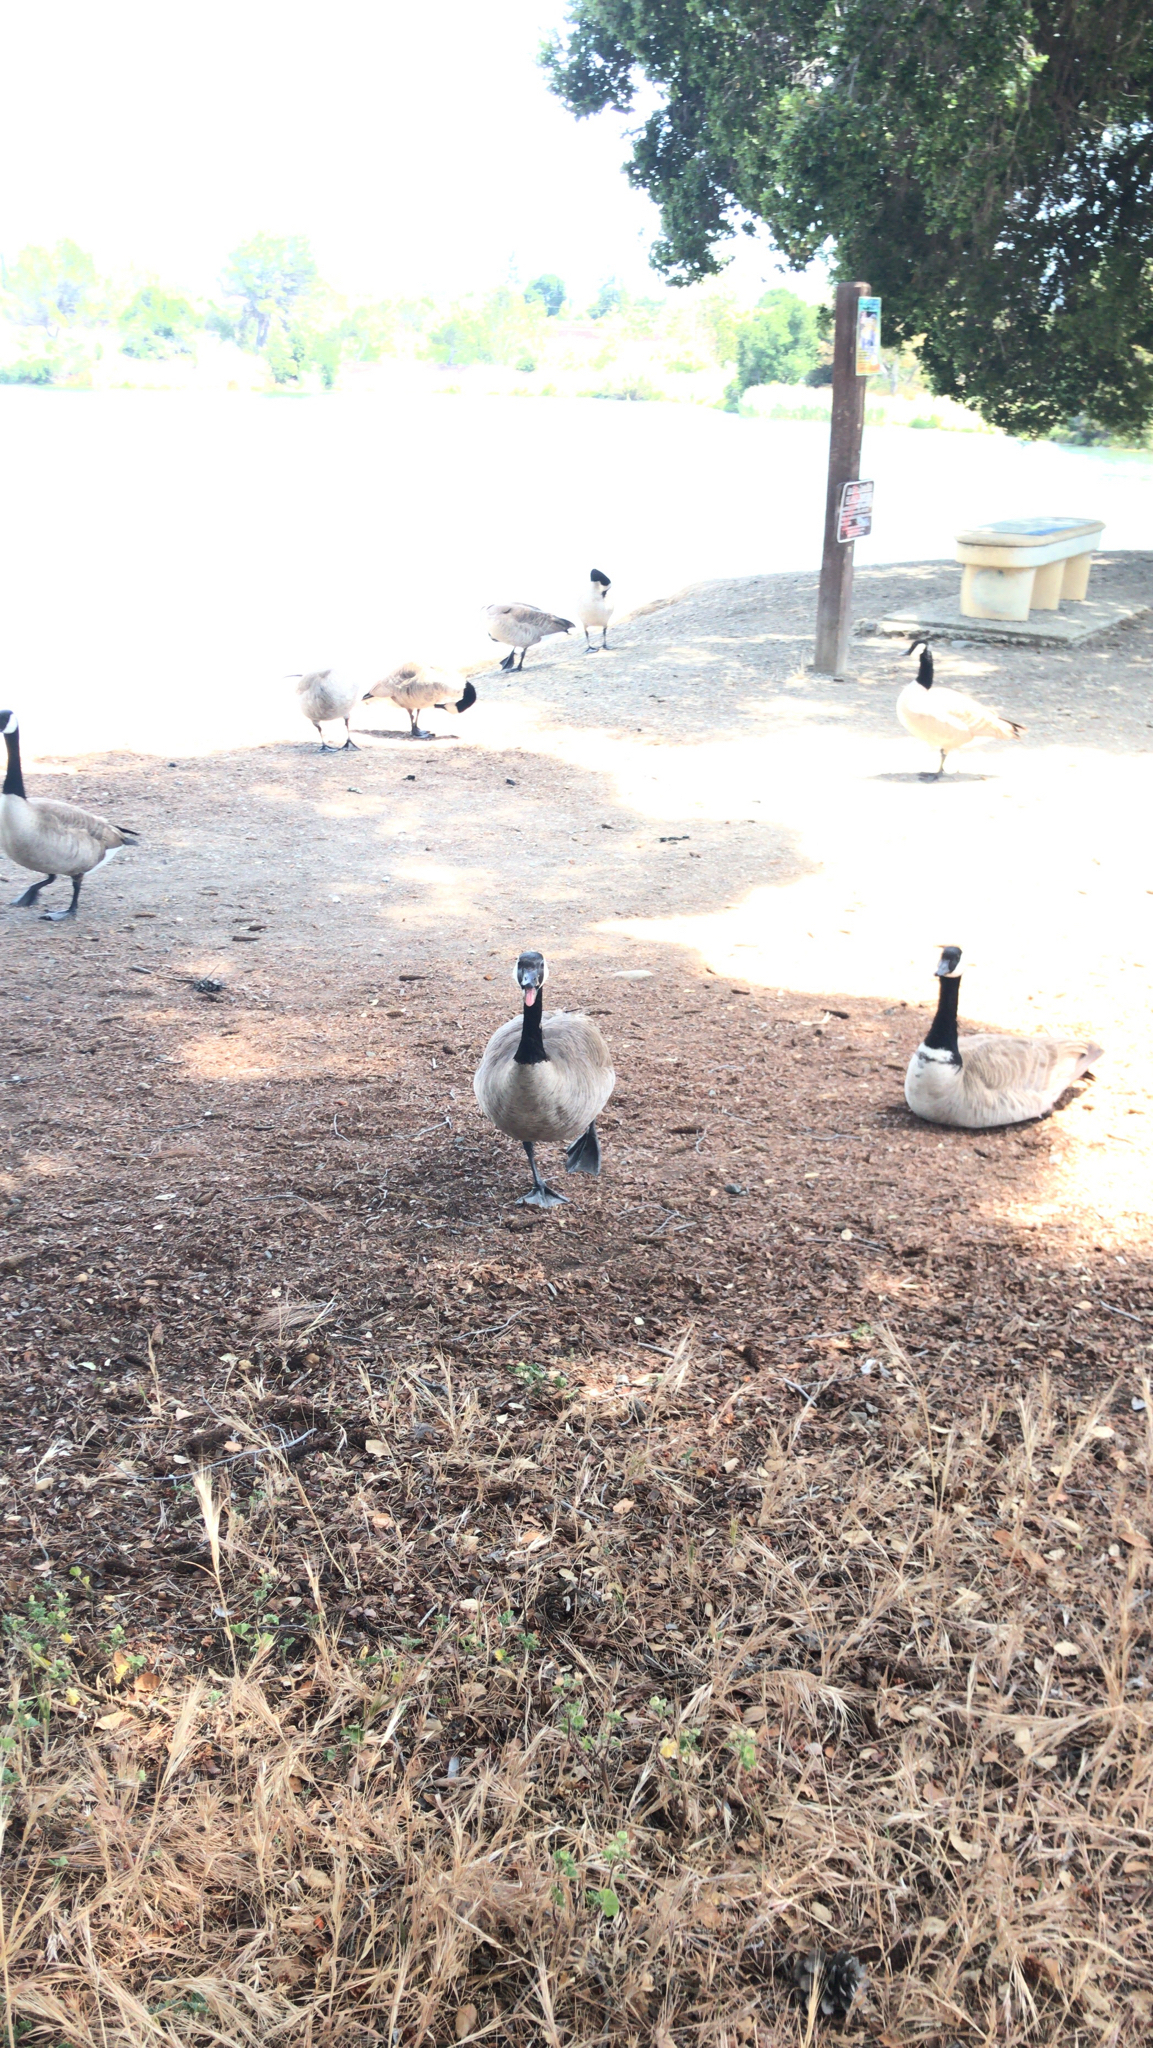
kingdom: Animalia
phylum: Chordata
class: Aves
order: Anseriformes
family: Anatidae
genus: Branta
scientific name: Branta canadensis
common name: Canada goose
